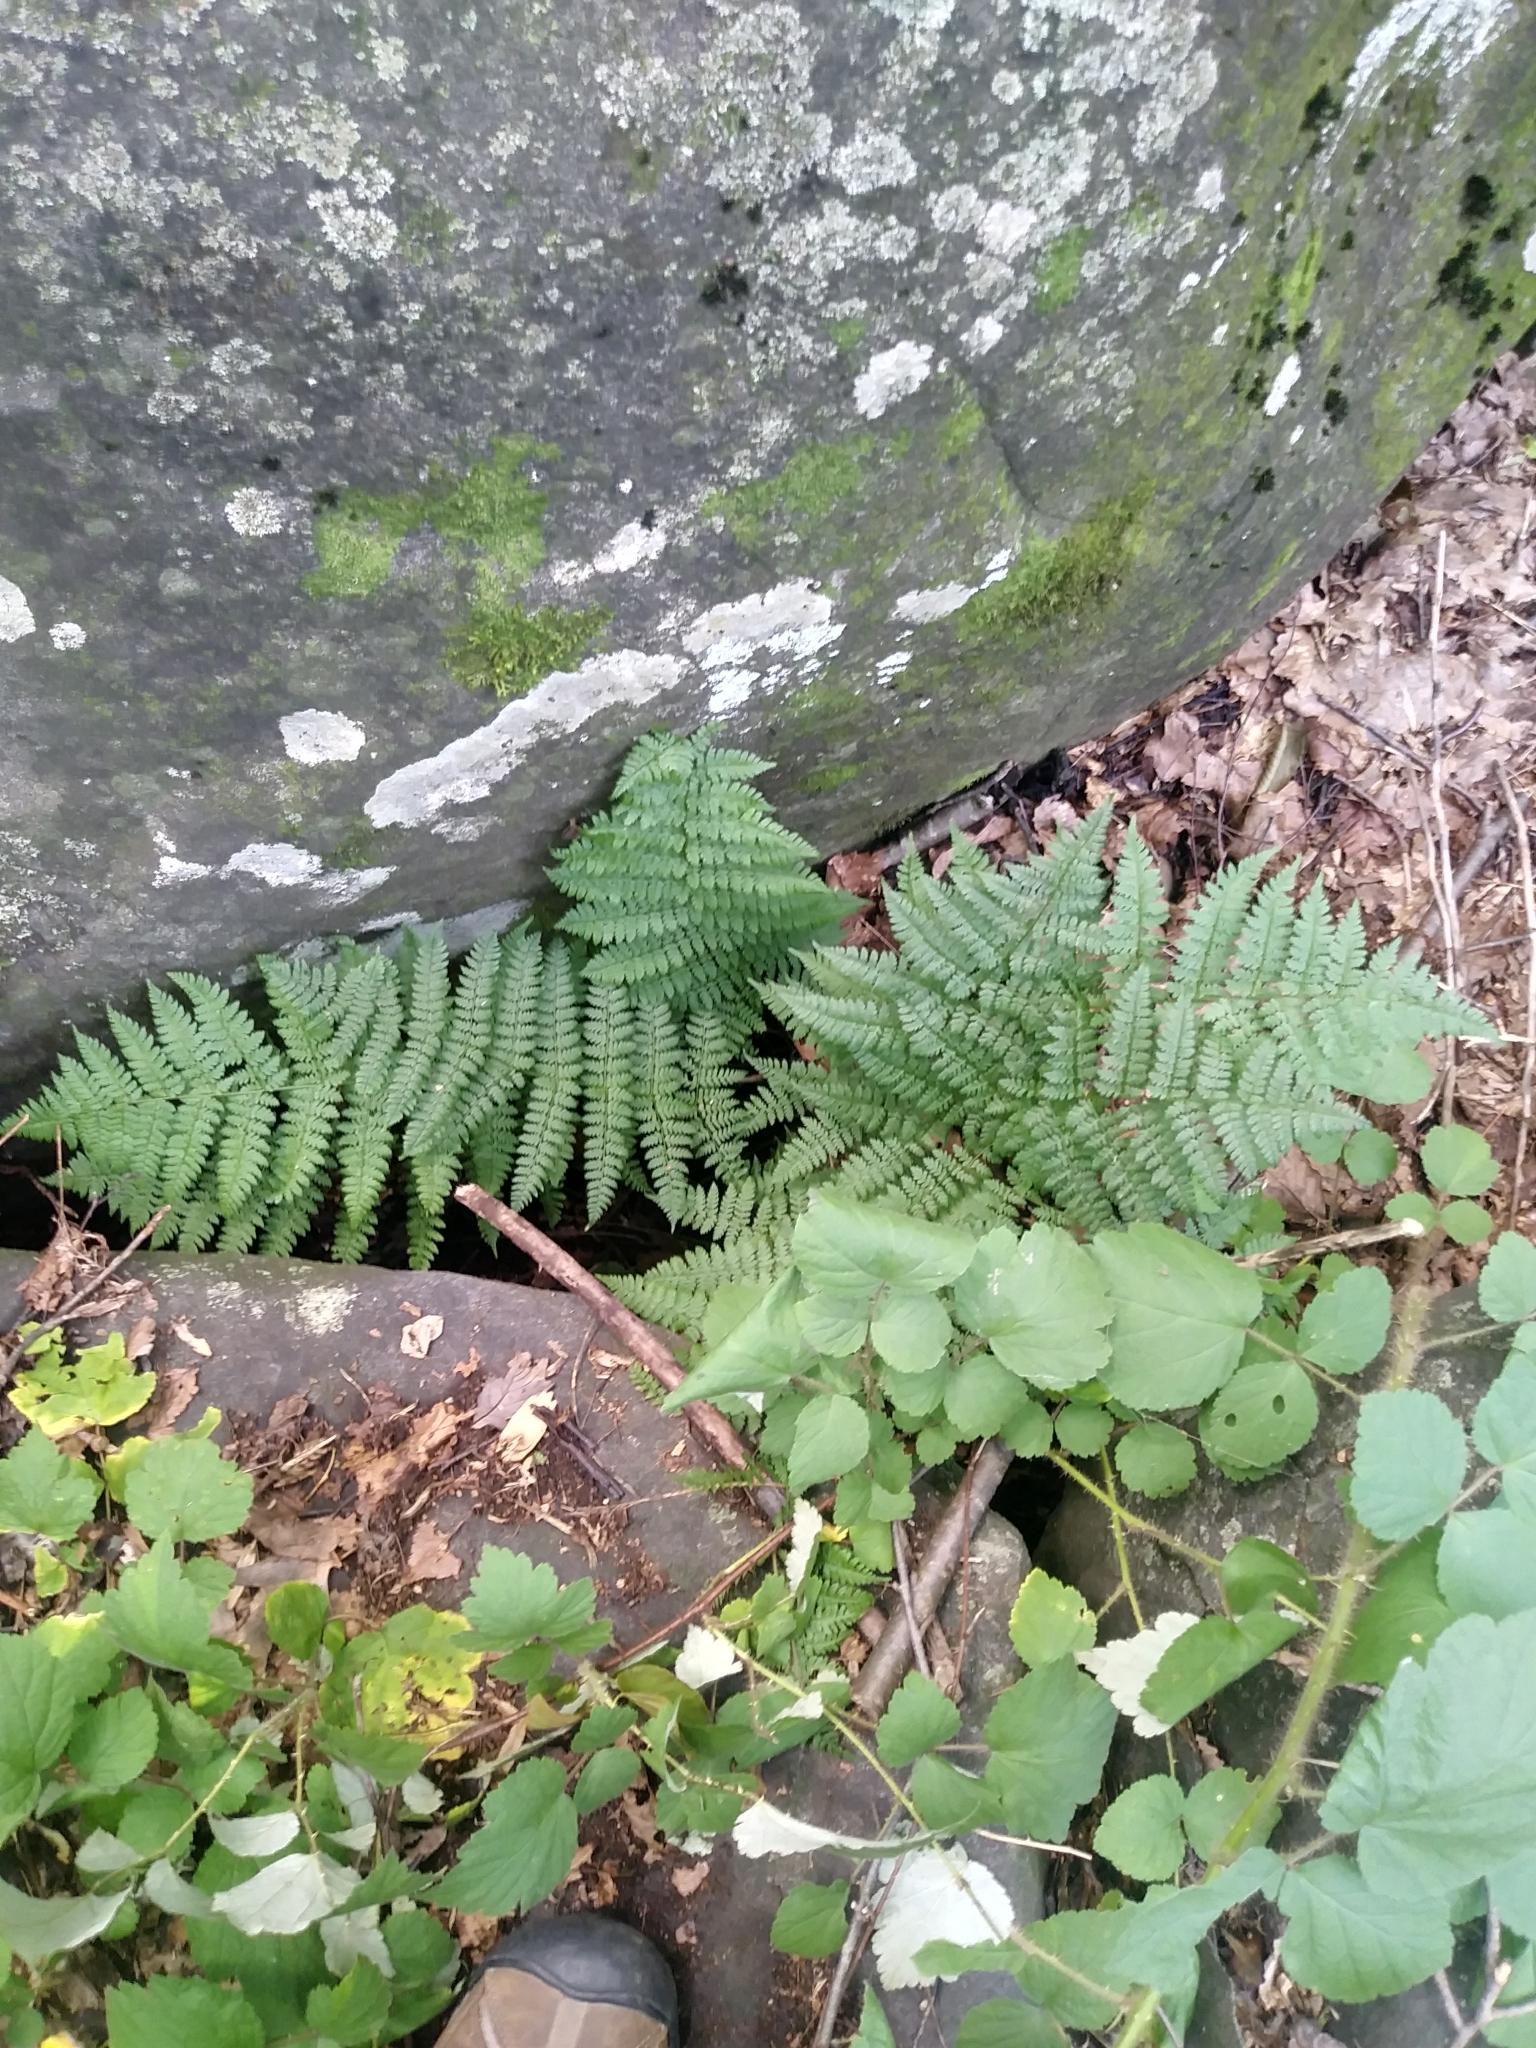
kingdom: Plantae
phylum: Tracheophyta
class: Polypodiopsida
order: Polypodiales
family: Dryopteridaceae
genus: Dryopteris
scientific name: Dryopteris intermedia
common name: Evergreen wood fern
